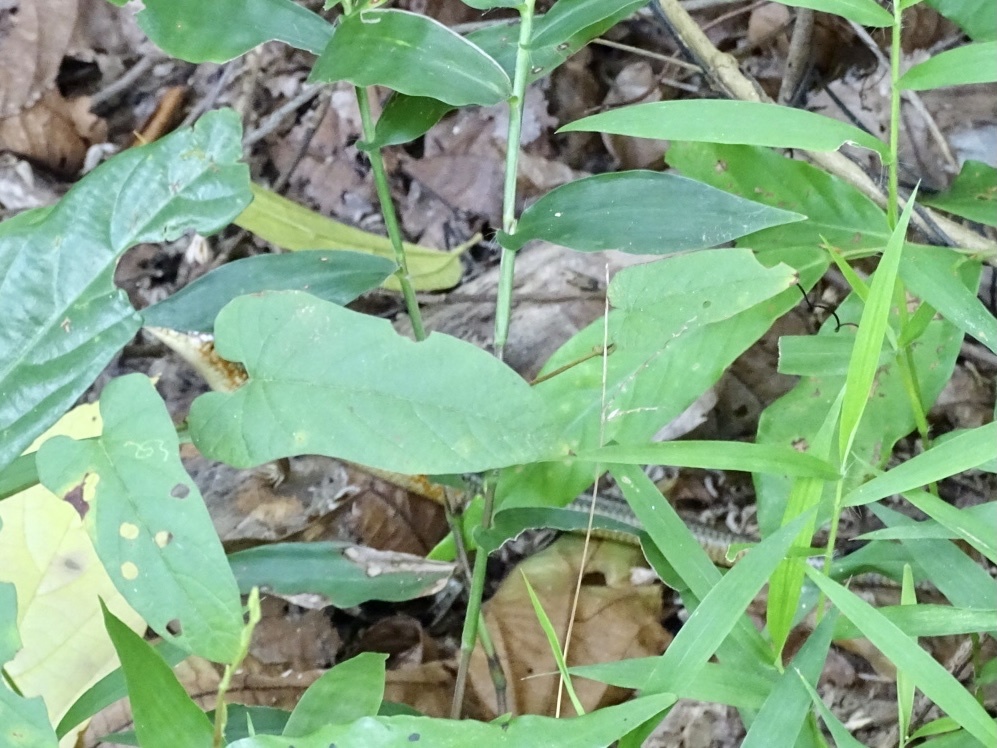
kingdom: Animalia
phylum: Chordata
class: Squamata
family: Scincidae
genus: Plestiodon
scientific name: Plestiodon chinensis
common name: Chinese blue-tailed skink
